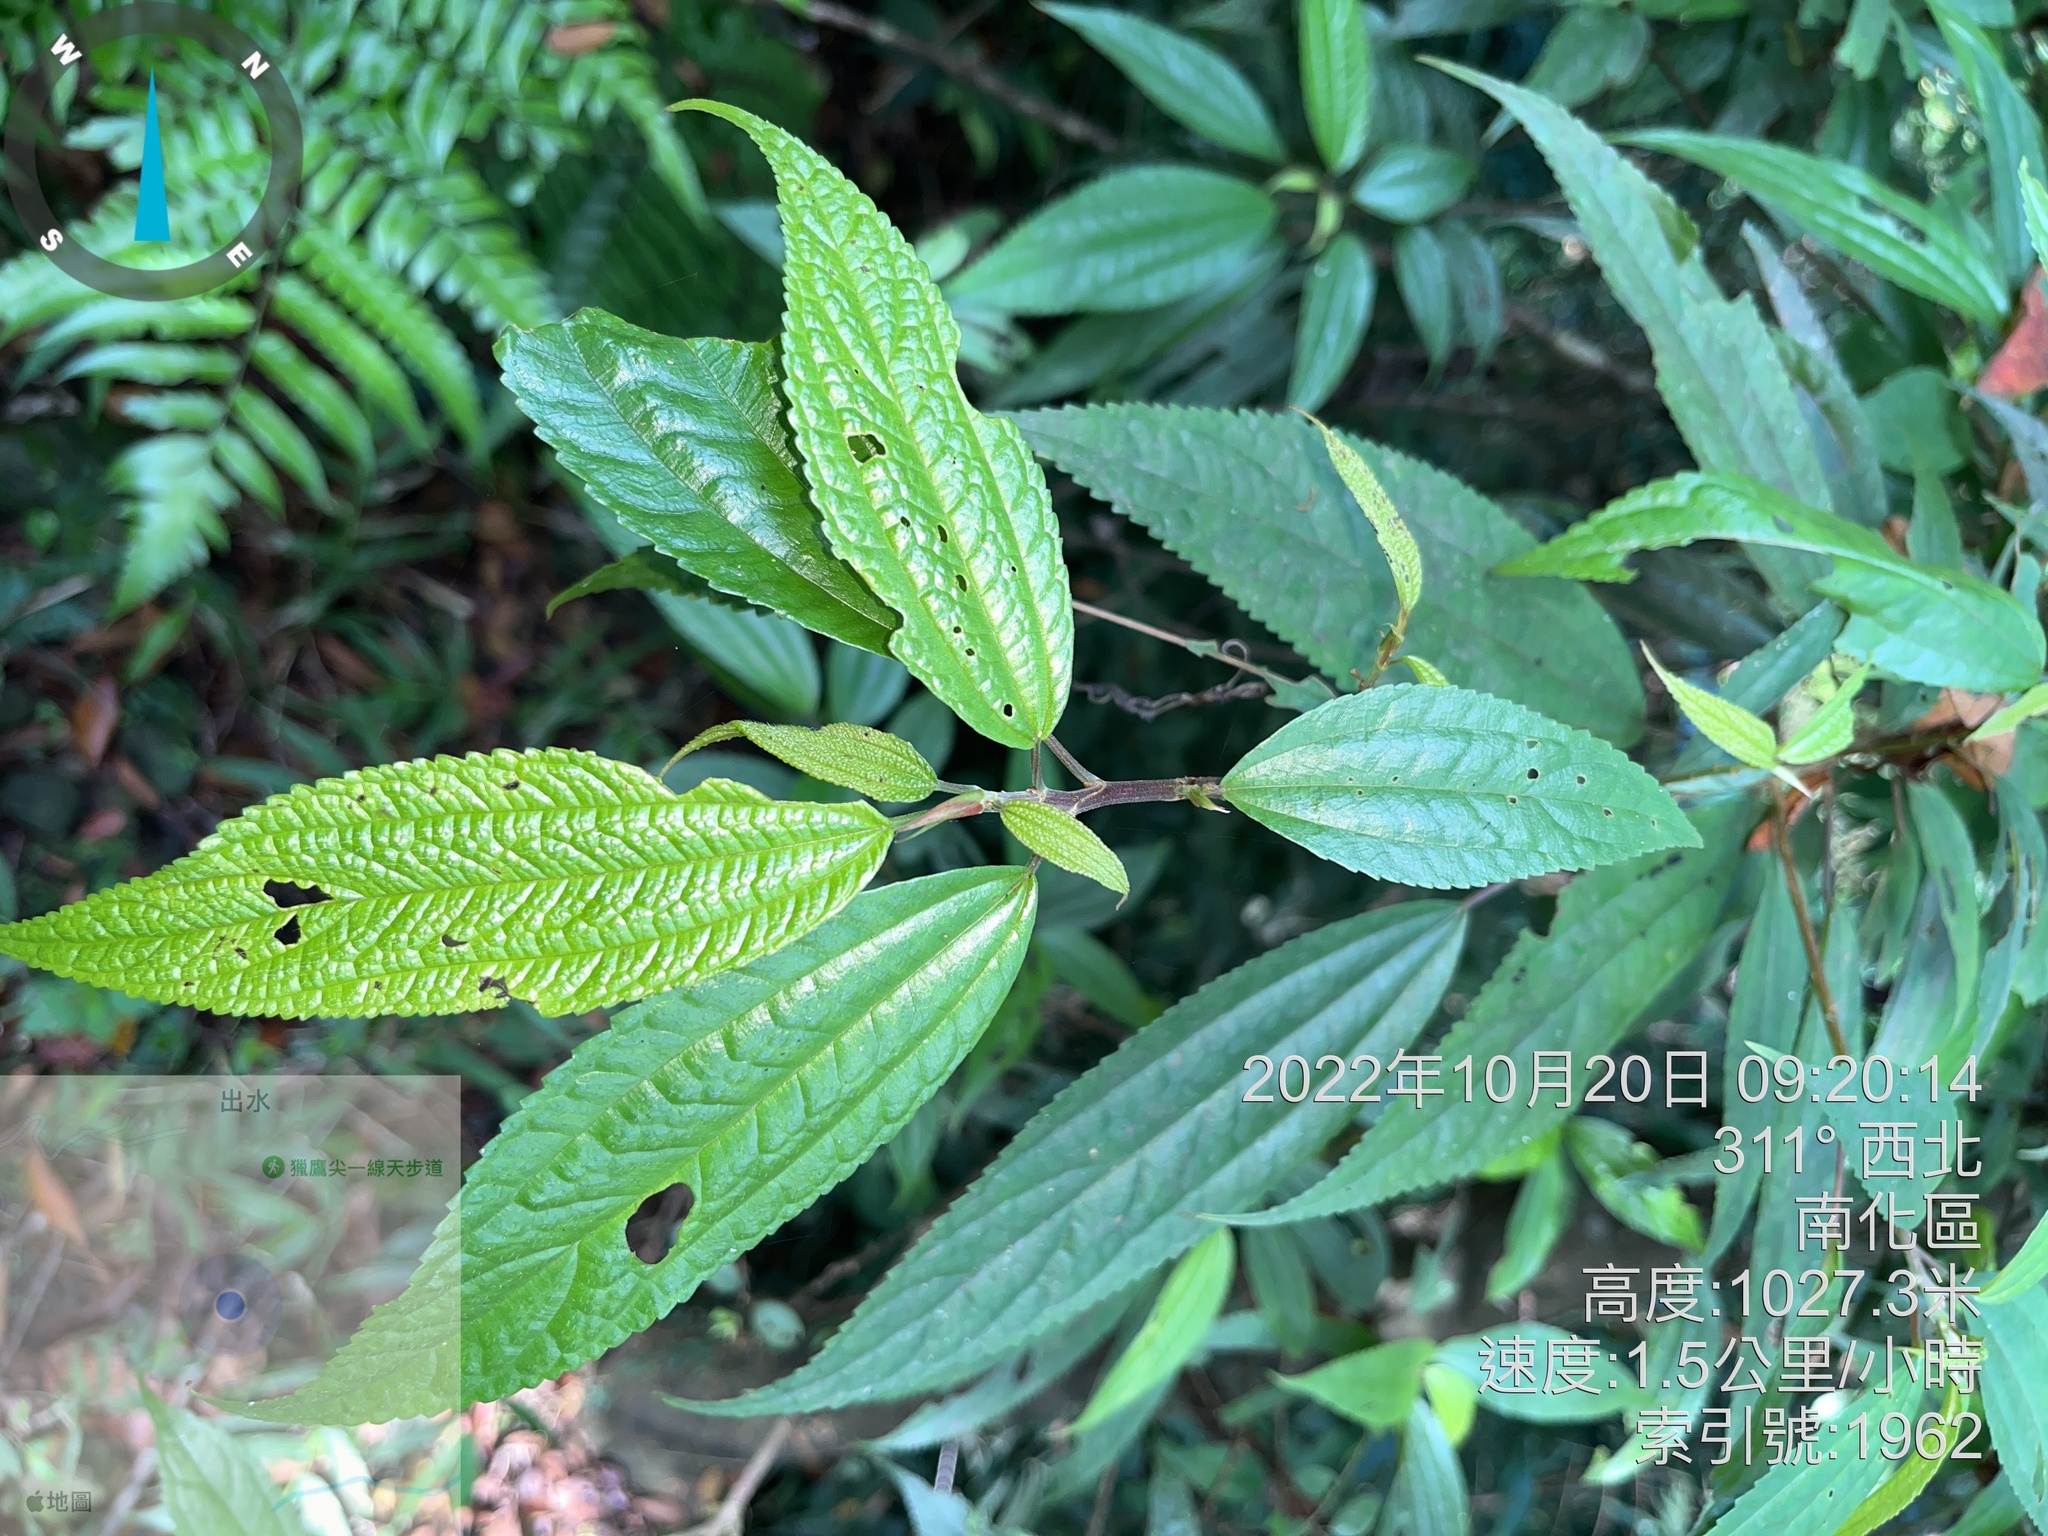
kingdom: Plantae
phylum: Tracheophyta
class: Magnoliopsida
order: Rosales
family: Urticaceae
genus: Oreocnide
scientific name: Oreocnide pedunculata
